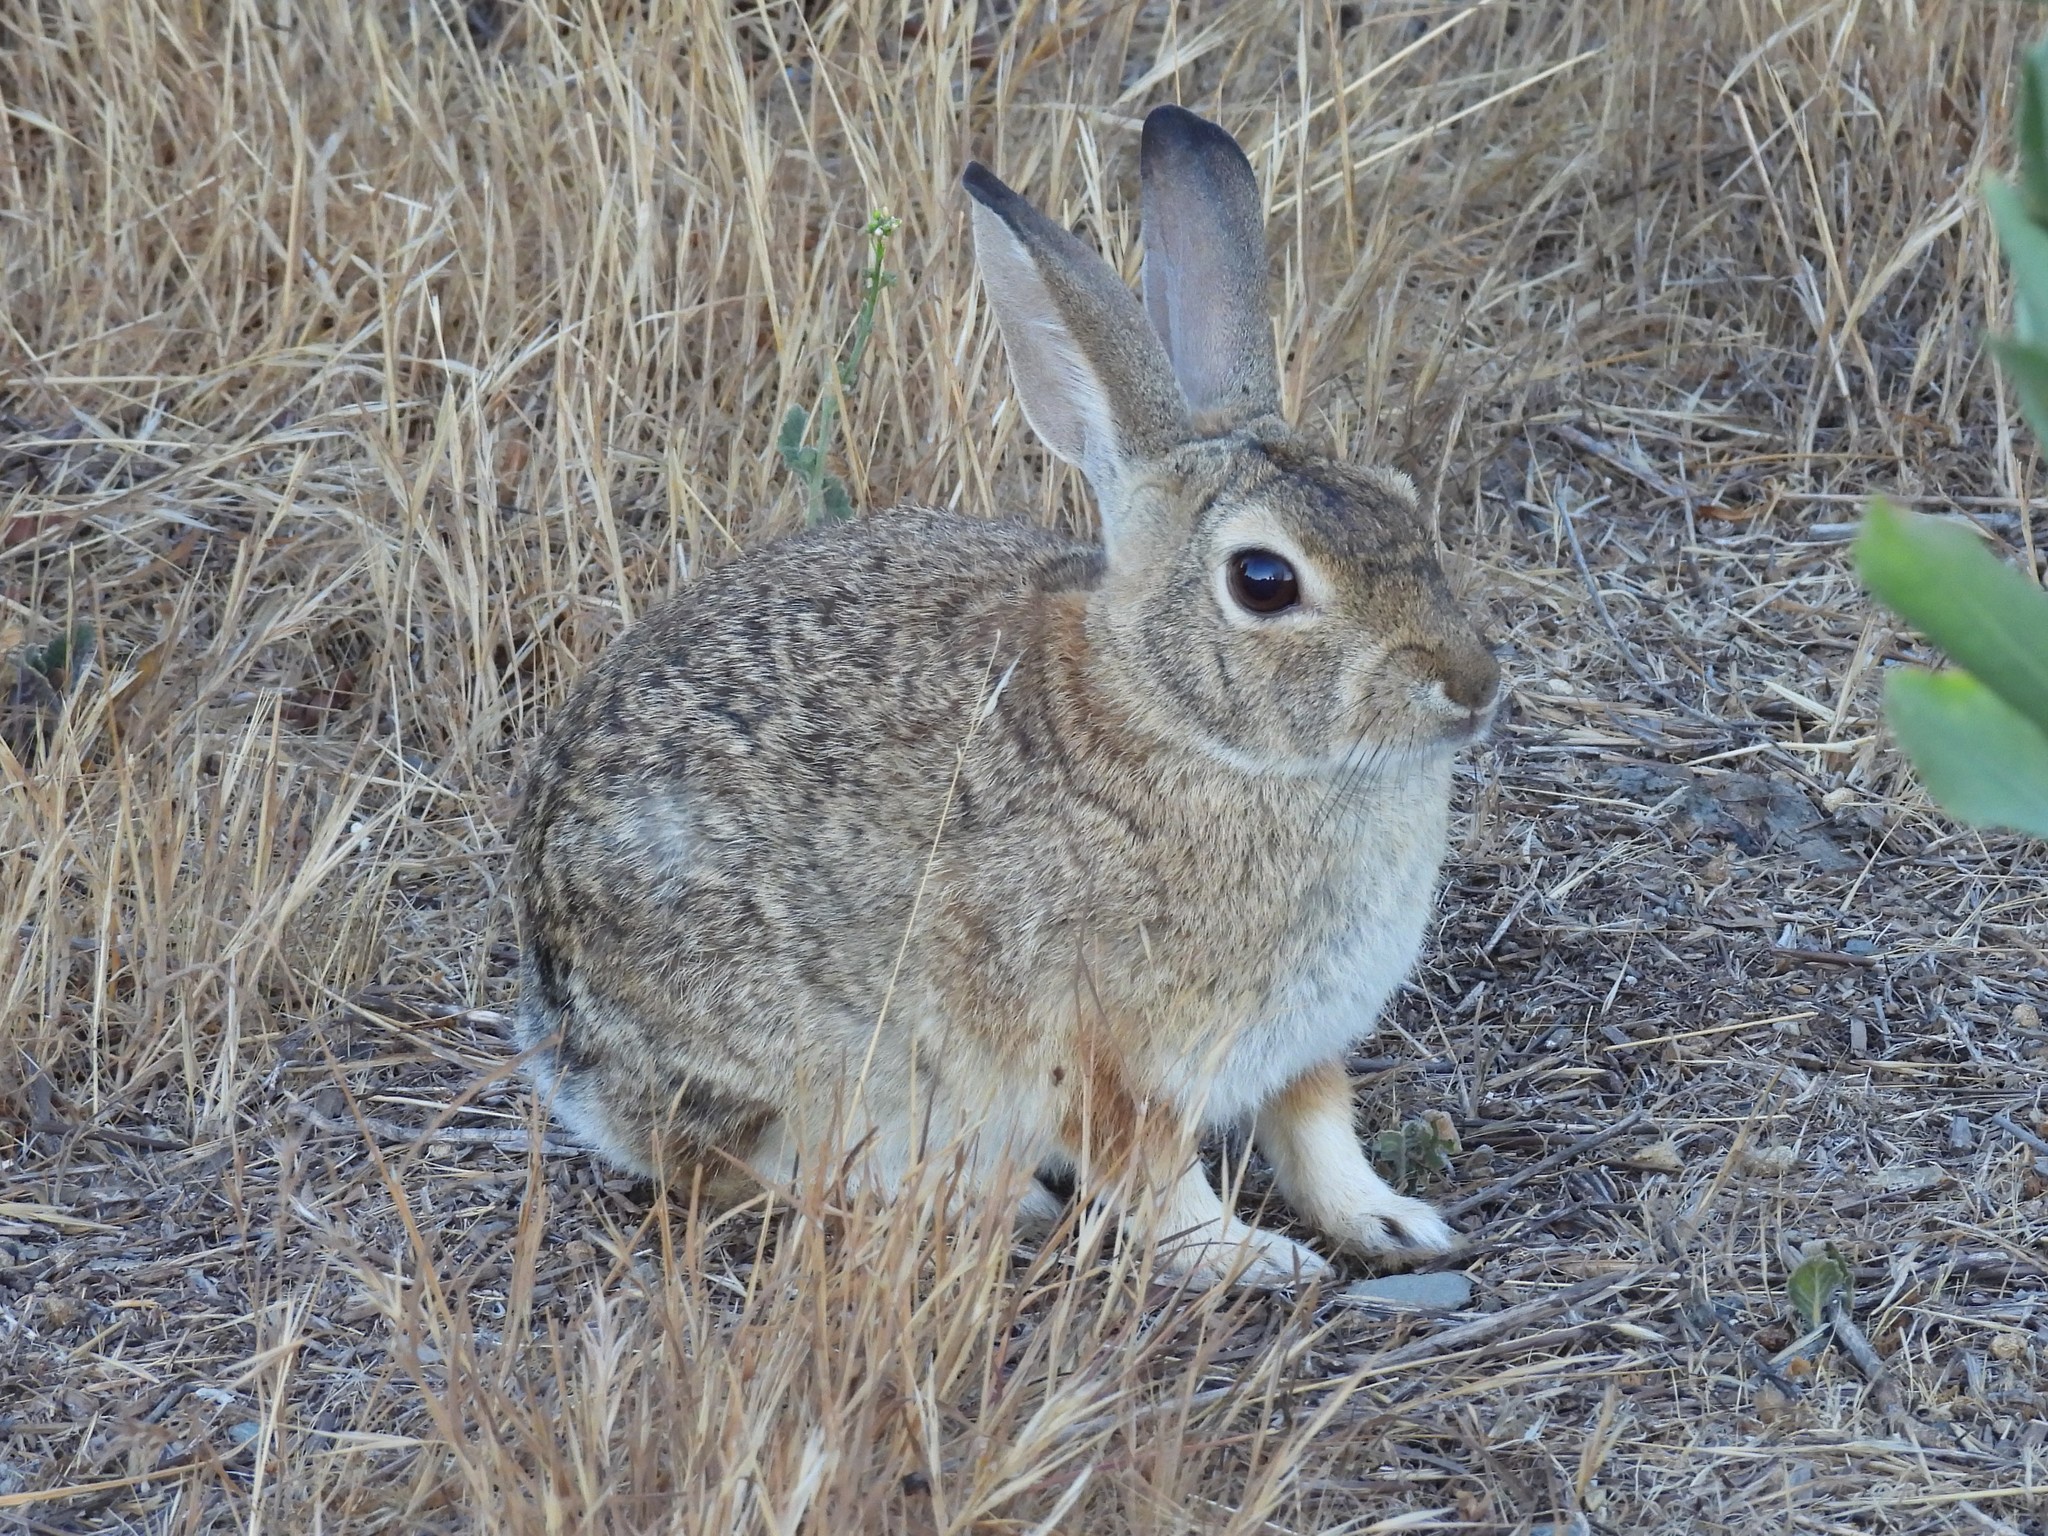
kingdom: Animalia
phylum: Chordata
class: Mammalia
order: Lagomorpha
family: Leporidae
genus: Sylvilagus
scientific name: Sylvilagus audubonii
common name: Desert cottontail
